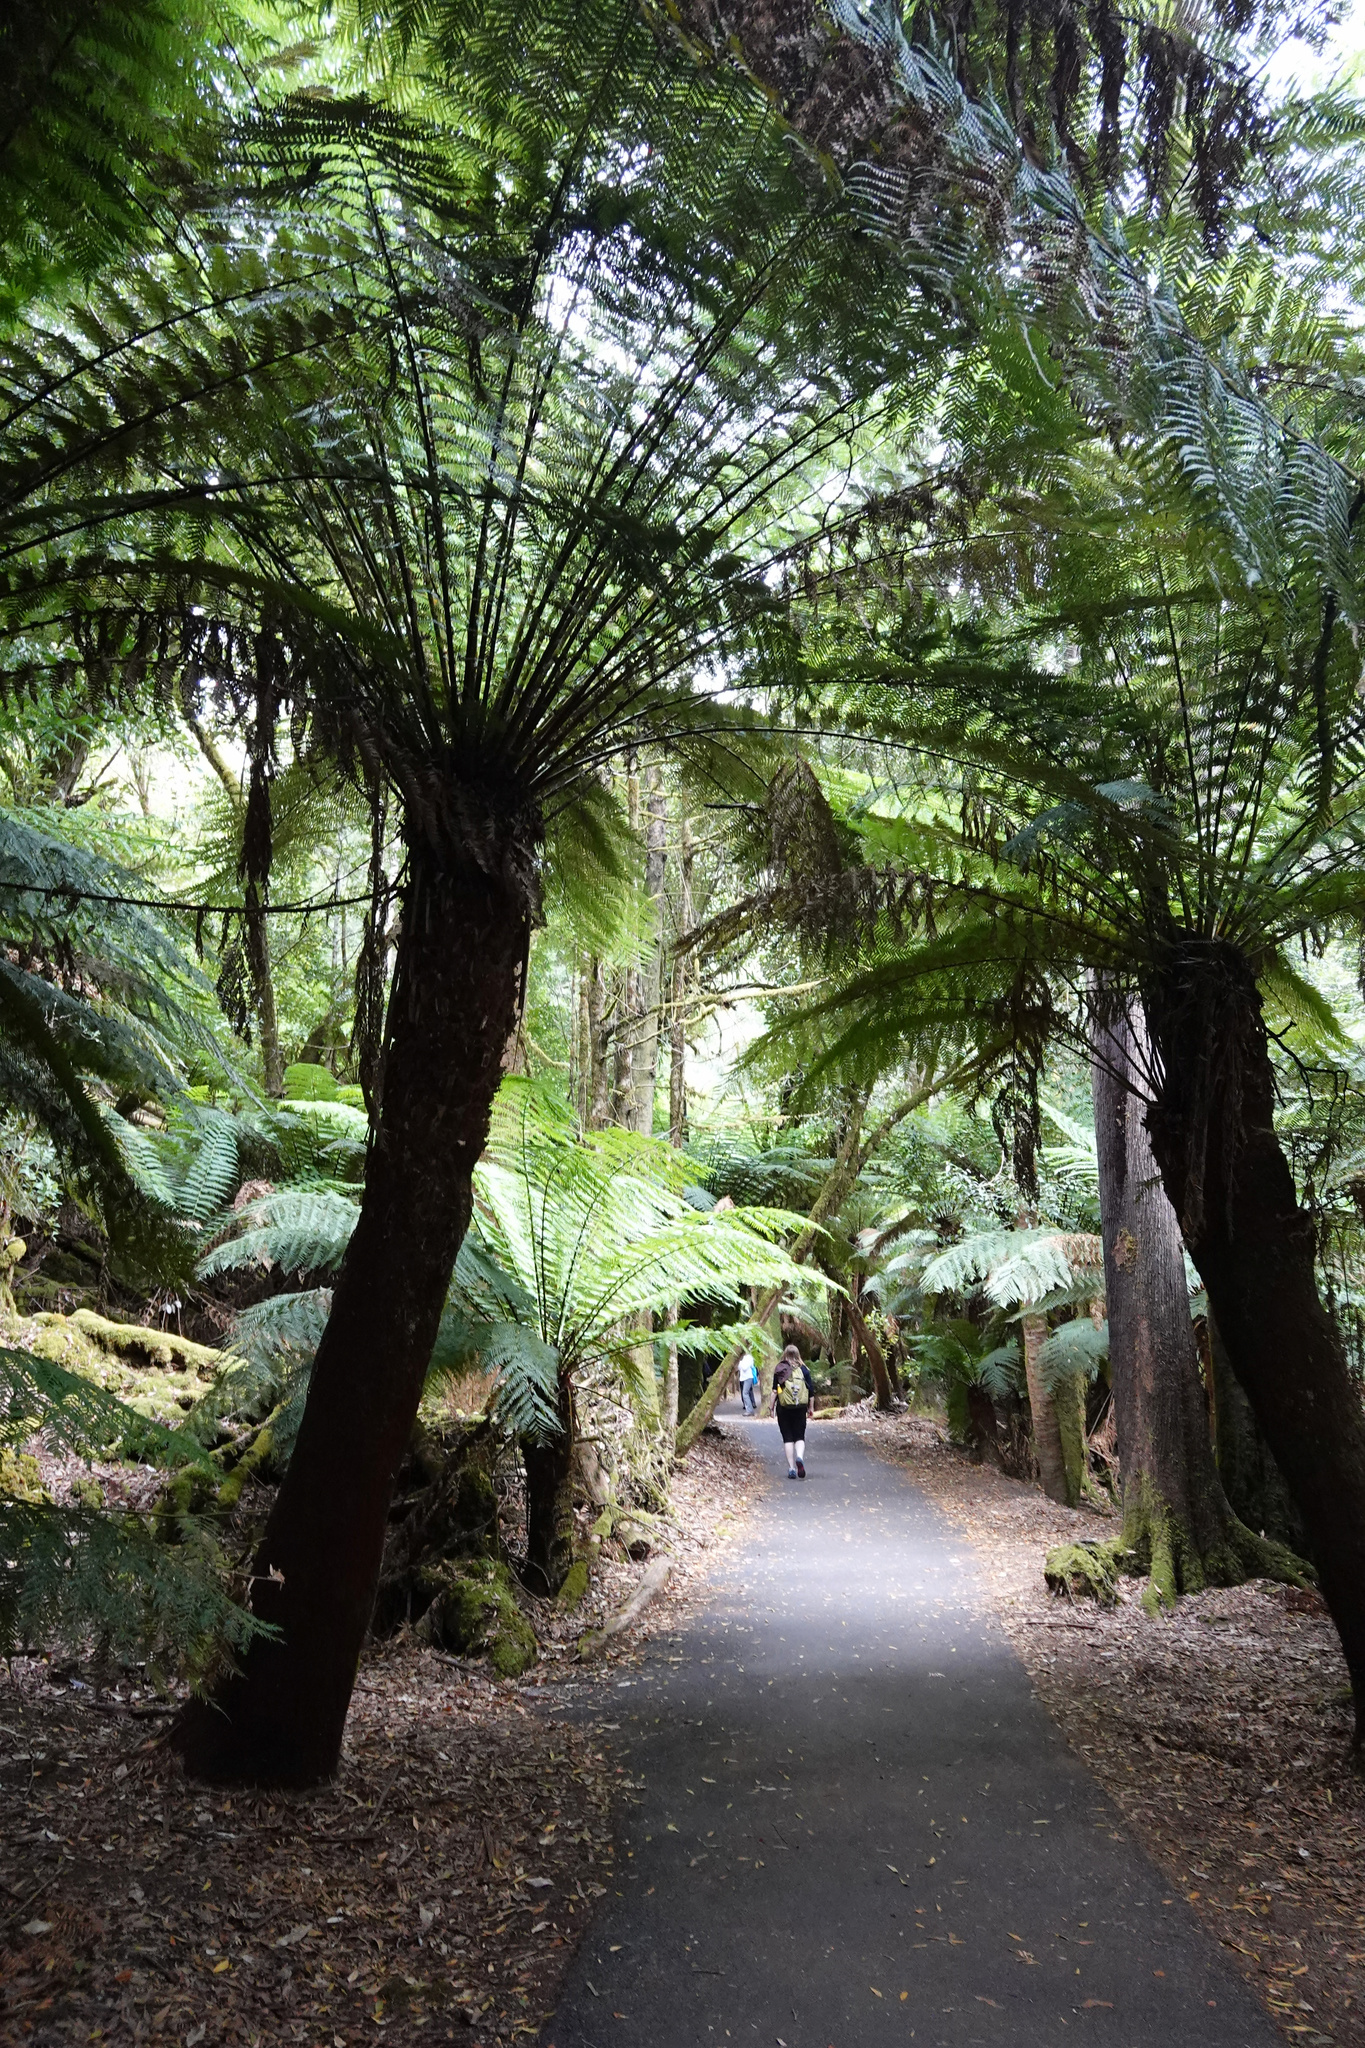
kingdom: Plantae
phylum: Tracheophyta
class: Polypodiopsida
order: Cyatheales
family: Dicksoniaceae
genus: Dicksonia
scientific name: Dicksonia antarctica
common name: Australian treefern
